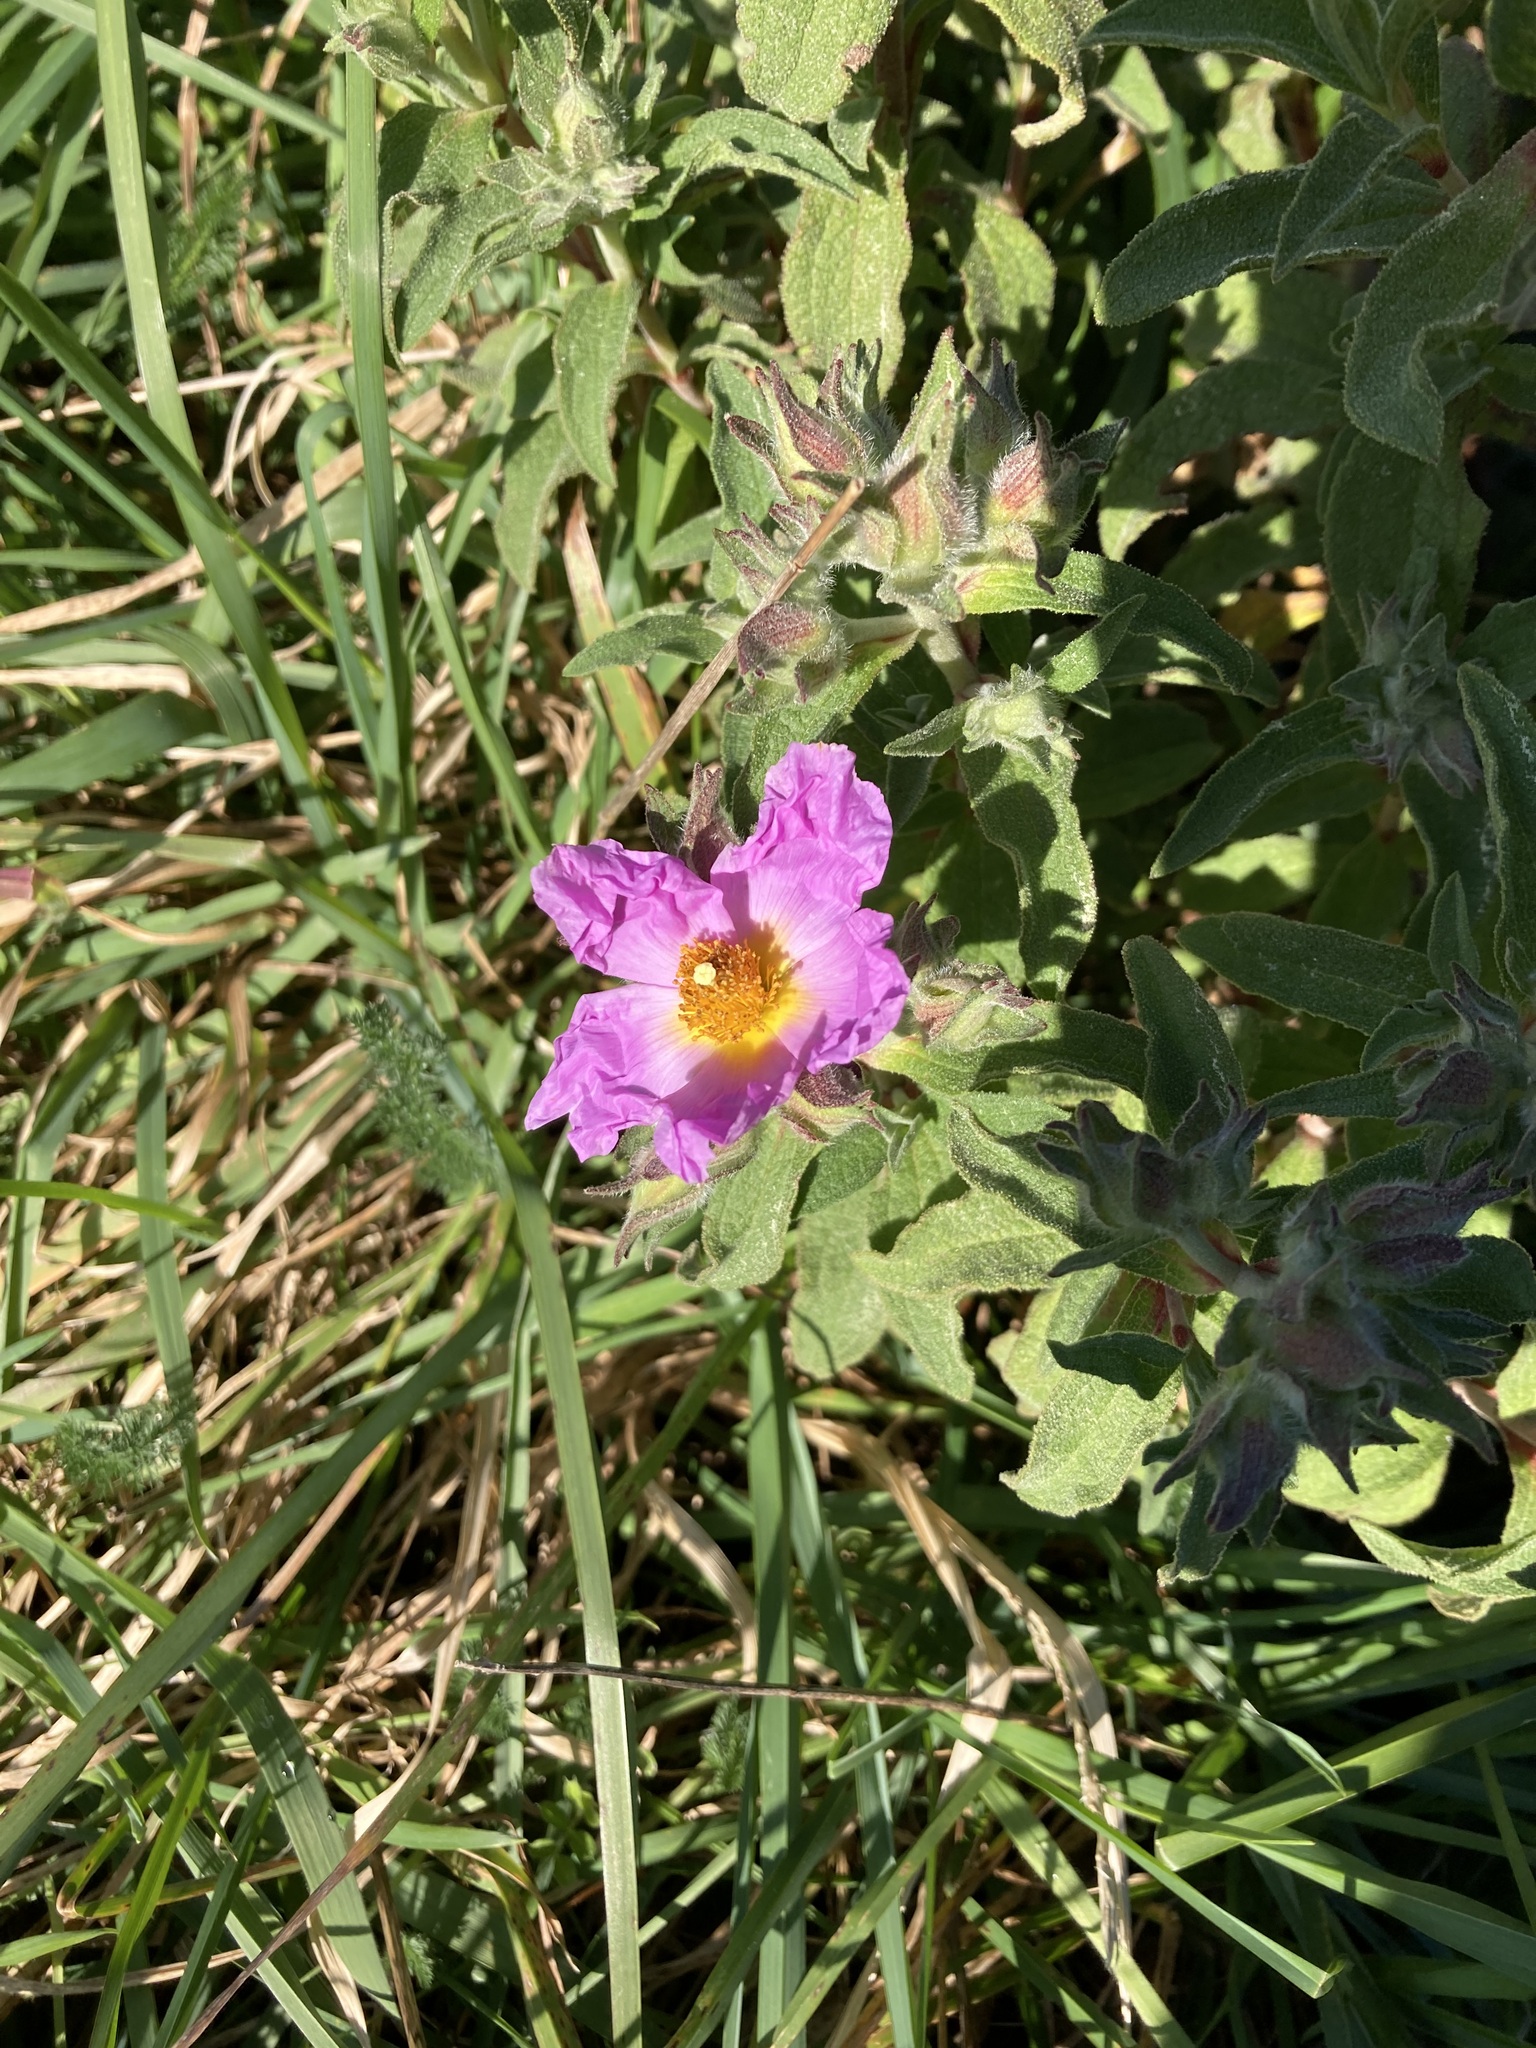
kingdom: Plantae
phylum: Tracheophyta
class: Magnoliopsida
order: Malvales
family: Cistaceae
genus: Cistus
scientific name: Cistus creticus
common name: Cretan rockrose
